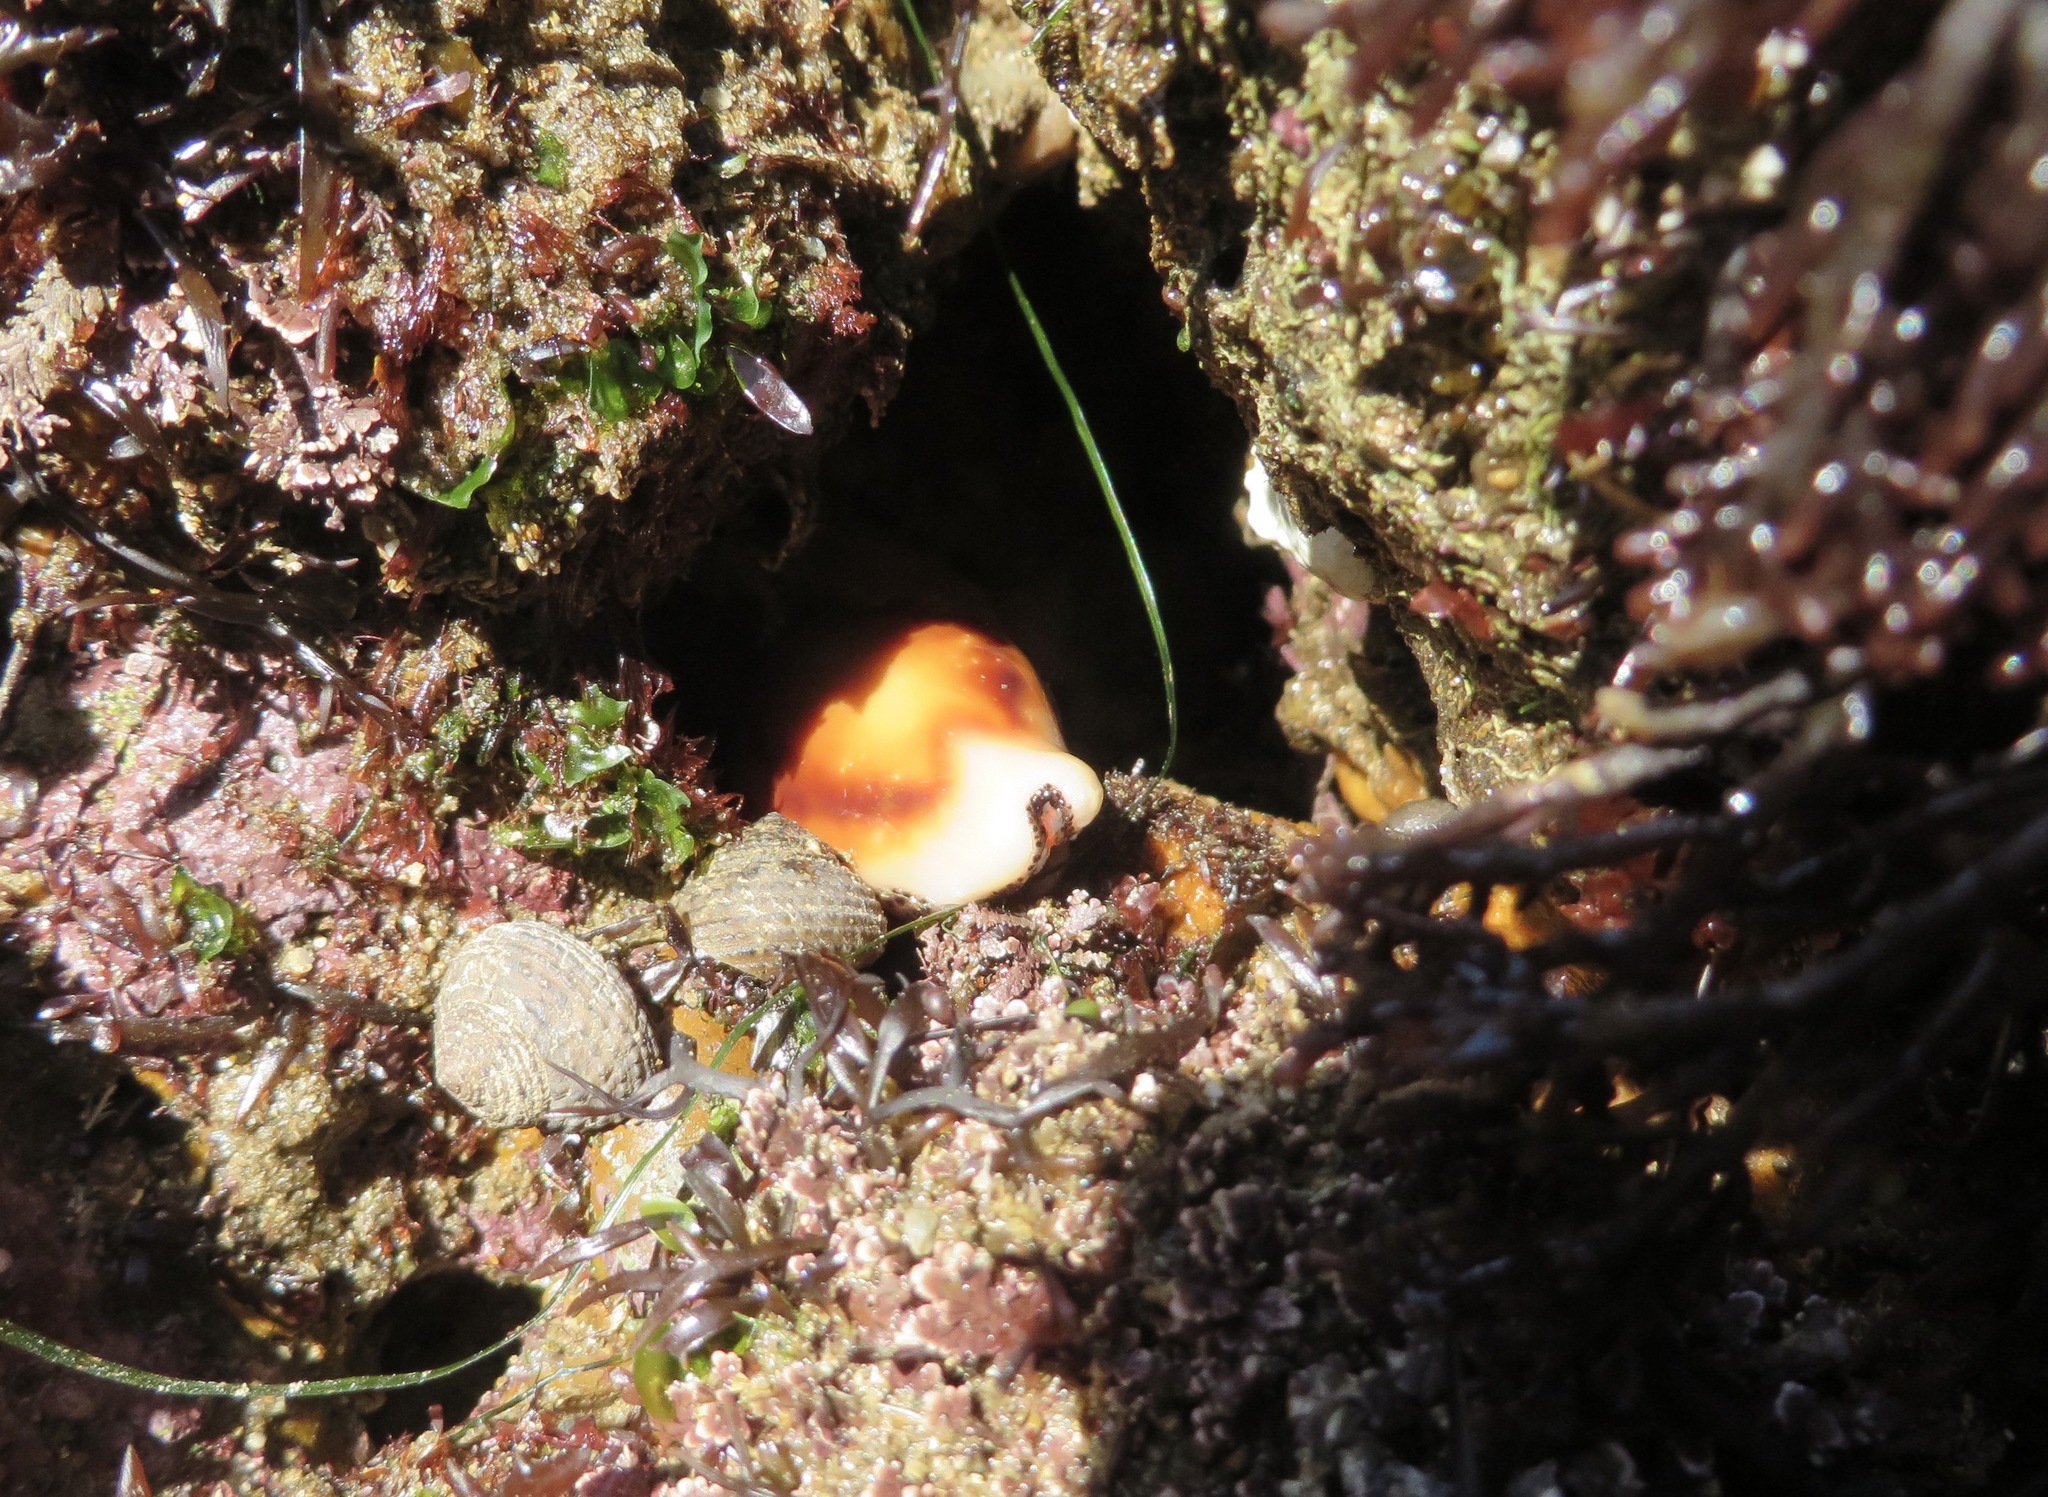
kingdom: Animalia
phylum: Mollusca
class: Gastropoda
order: Littorinimorpha
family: Cypraeidae
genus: Neobernaya
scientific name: Neobernaya spadicea
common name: Chestnut cowrie
